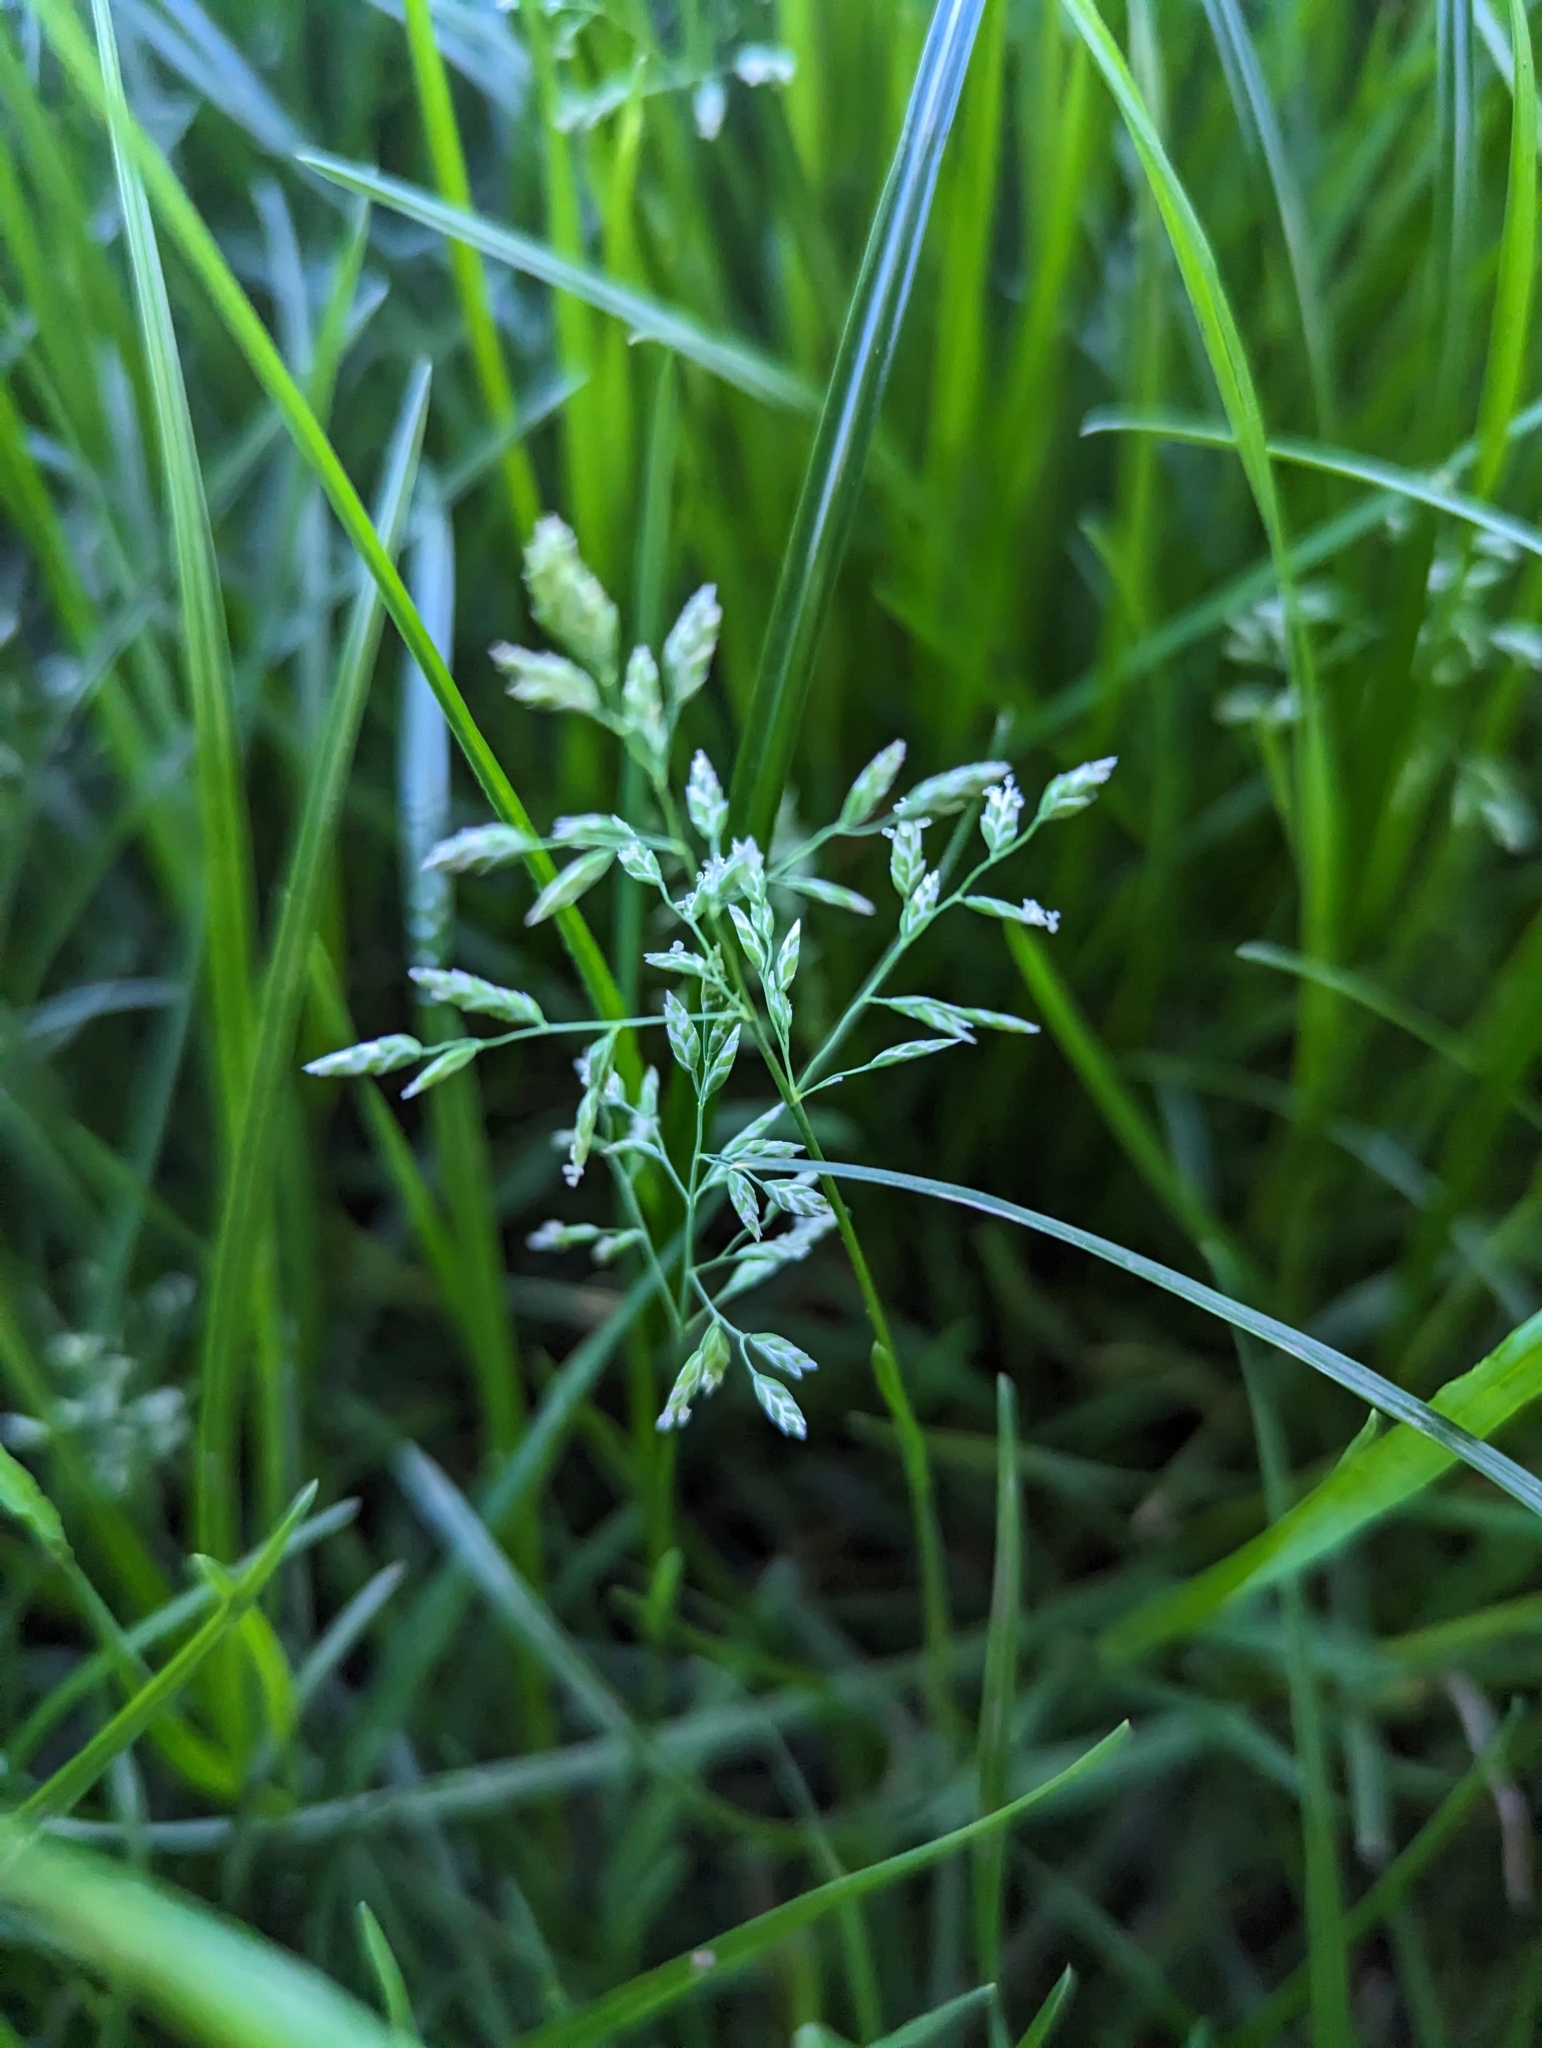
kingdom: Plantae
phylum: Tracheophyta
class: Liliopsida
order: Poales
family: Poaceae
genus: Poa
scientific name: Poa annua
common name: Annual bluegrass
